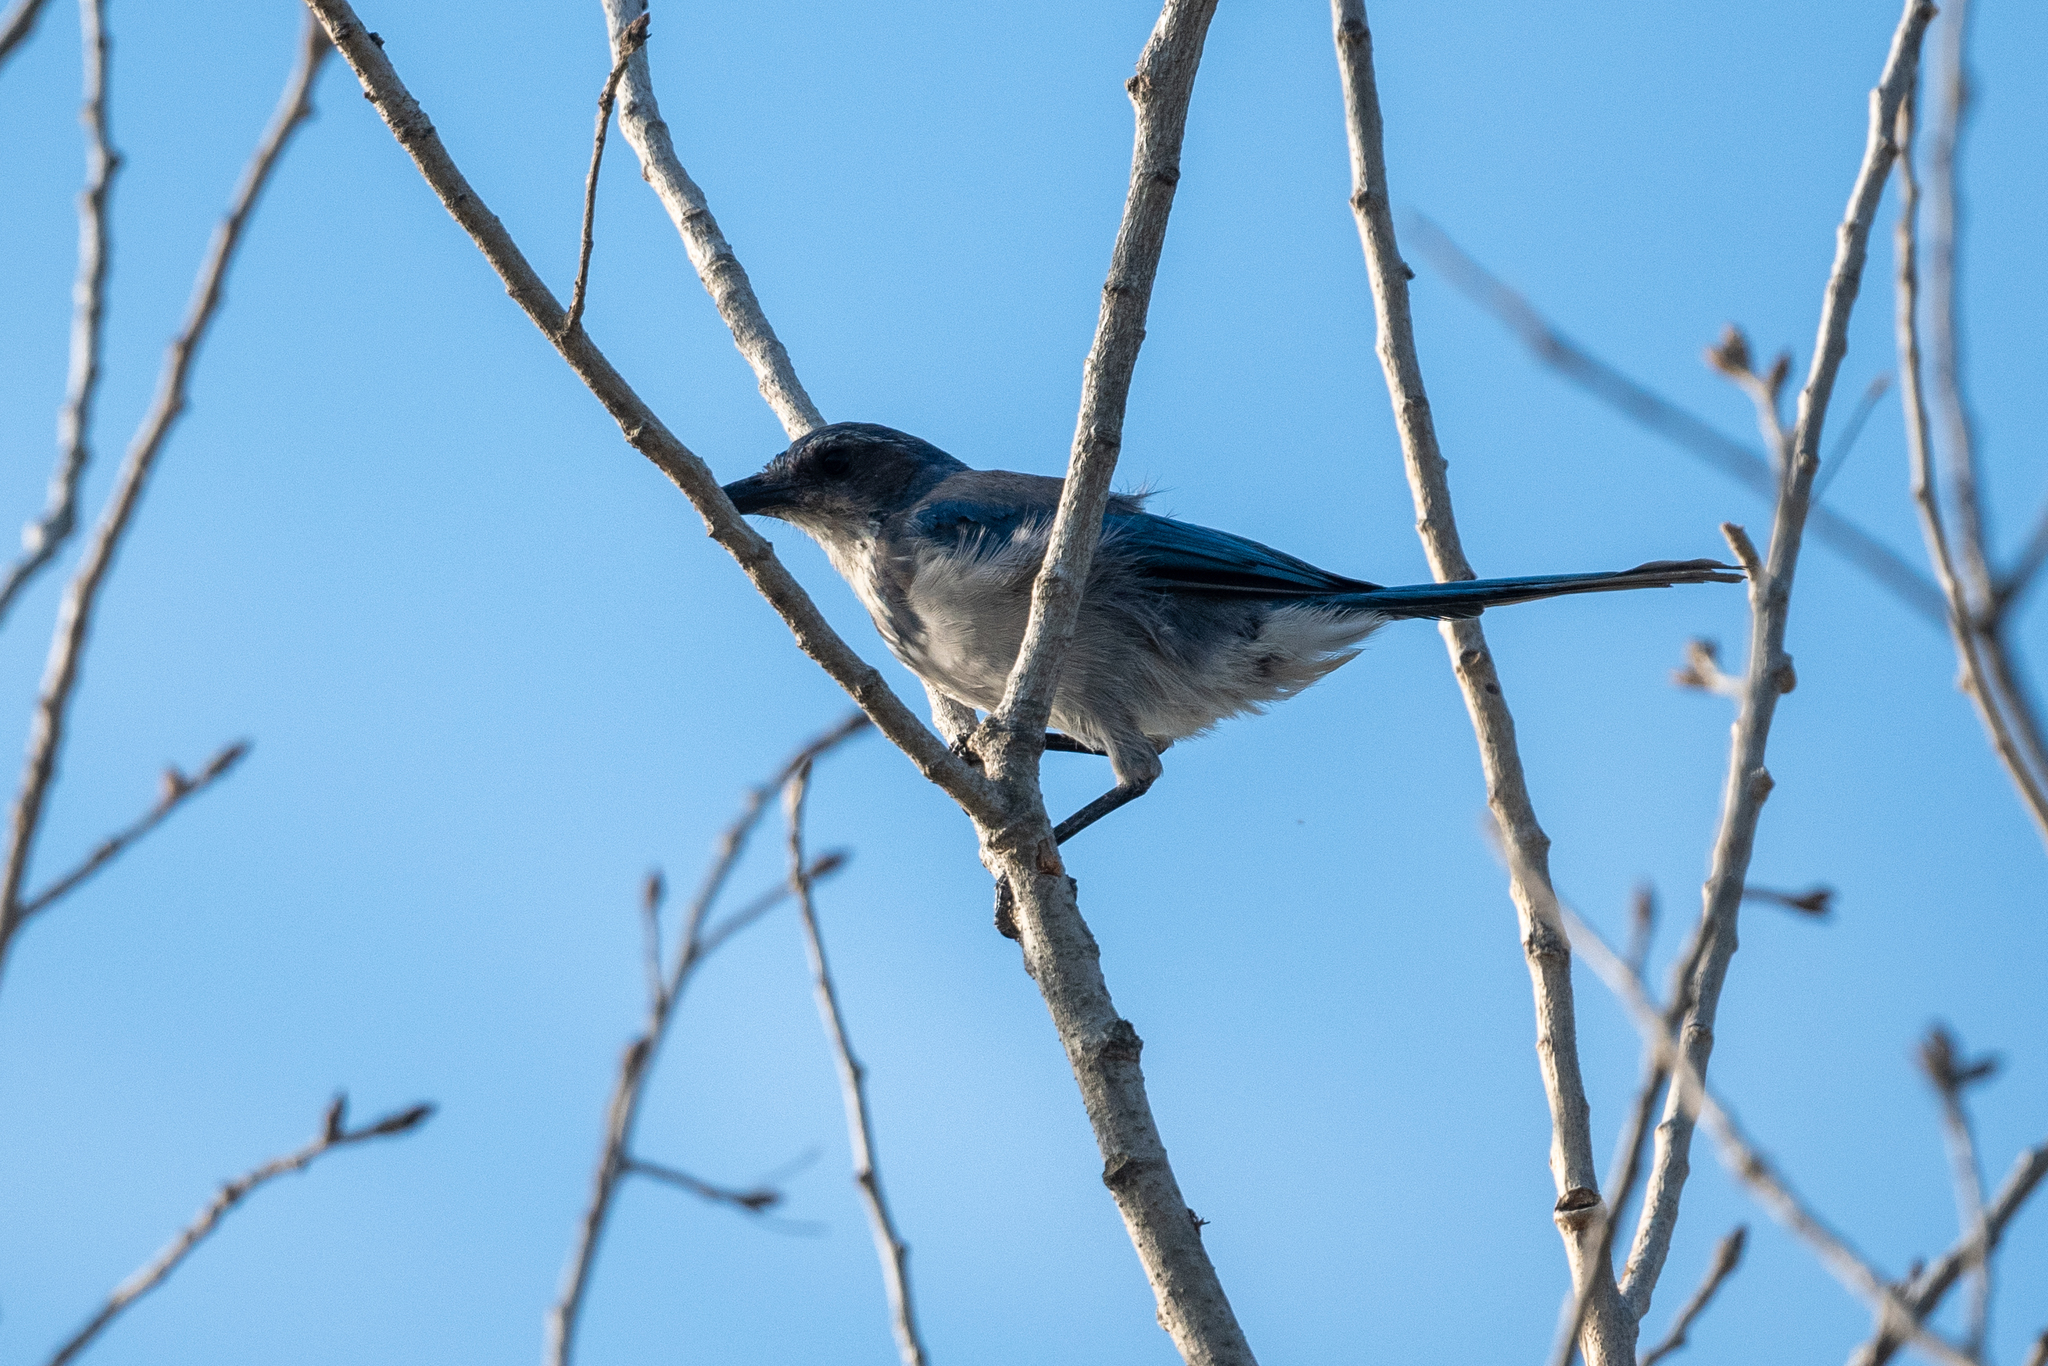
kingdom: Animalia
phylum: Chordata
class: Aves
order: Passeriformes
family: Corvidae
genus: Aphelocoma
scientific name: Aphelocoma californica
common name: California scrub-jay
